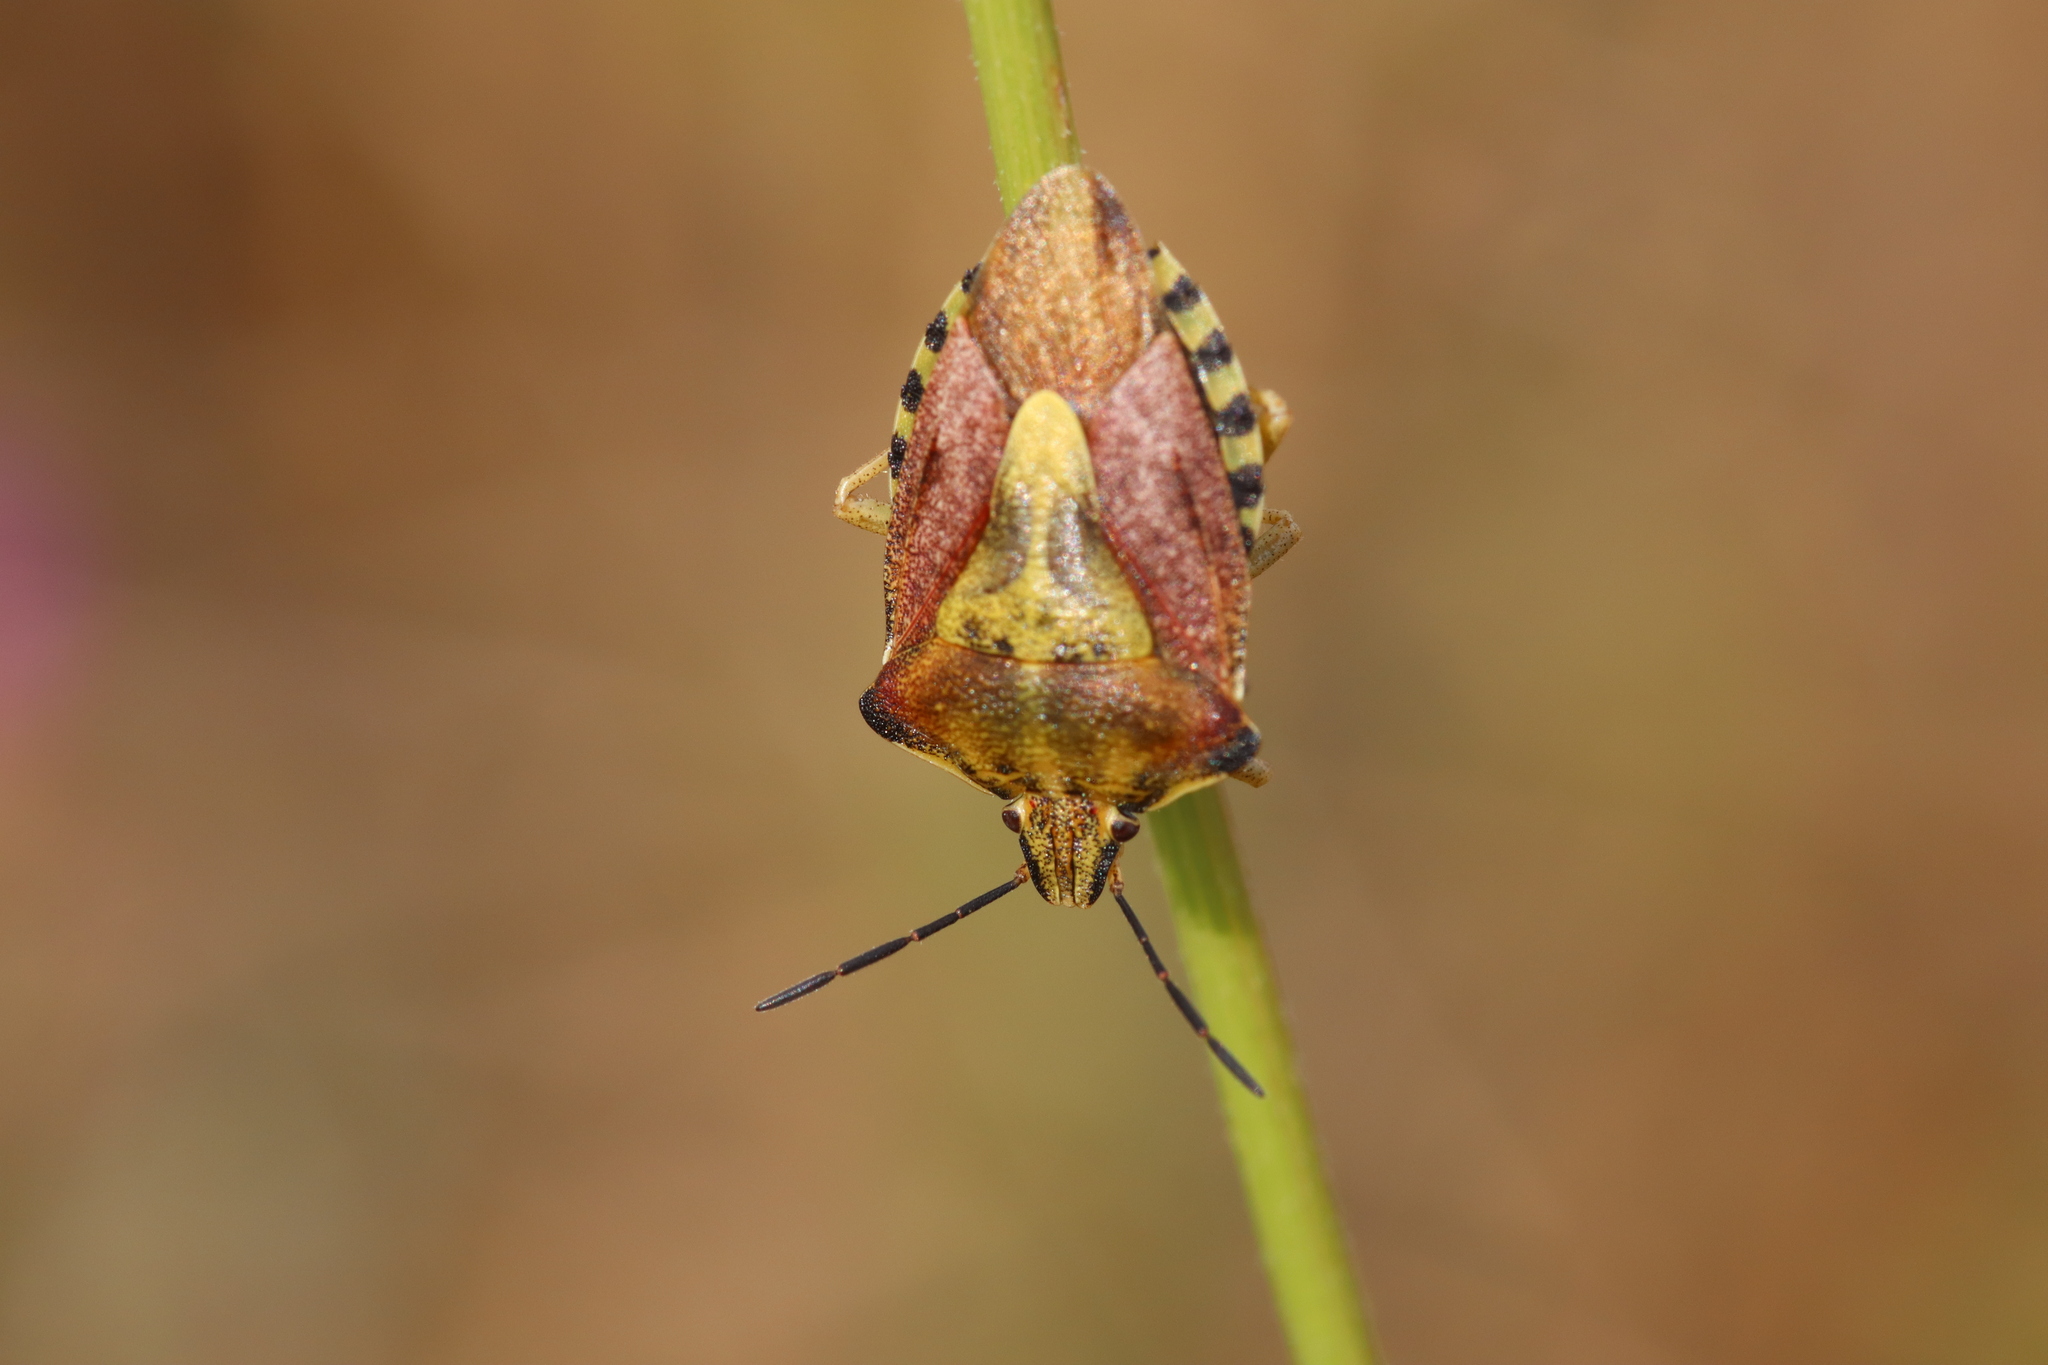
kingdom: Animalia
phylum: Arthropoda
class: Insecta
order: Hemiptera
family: Pentatomidae
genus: Carpocoris
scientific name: Carpocoris purpureipennis
